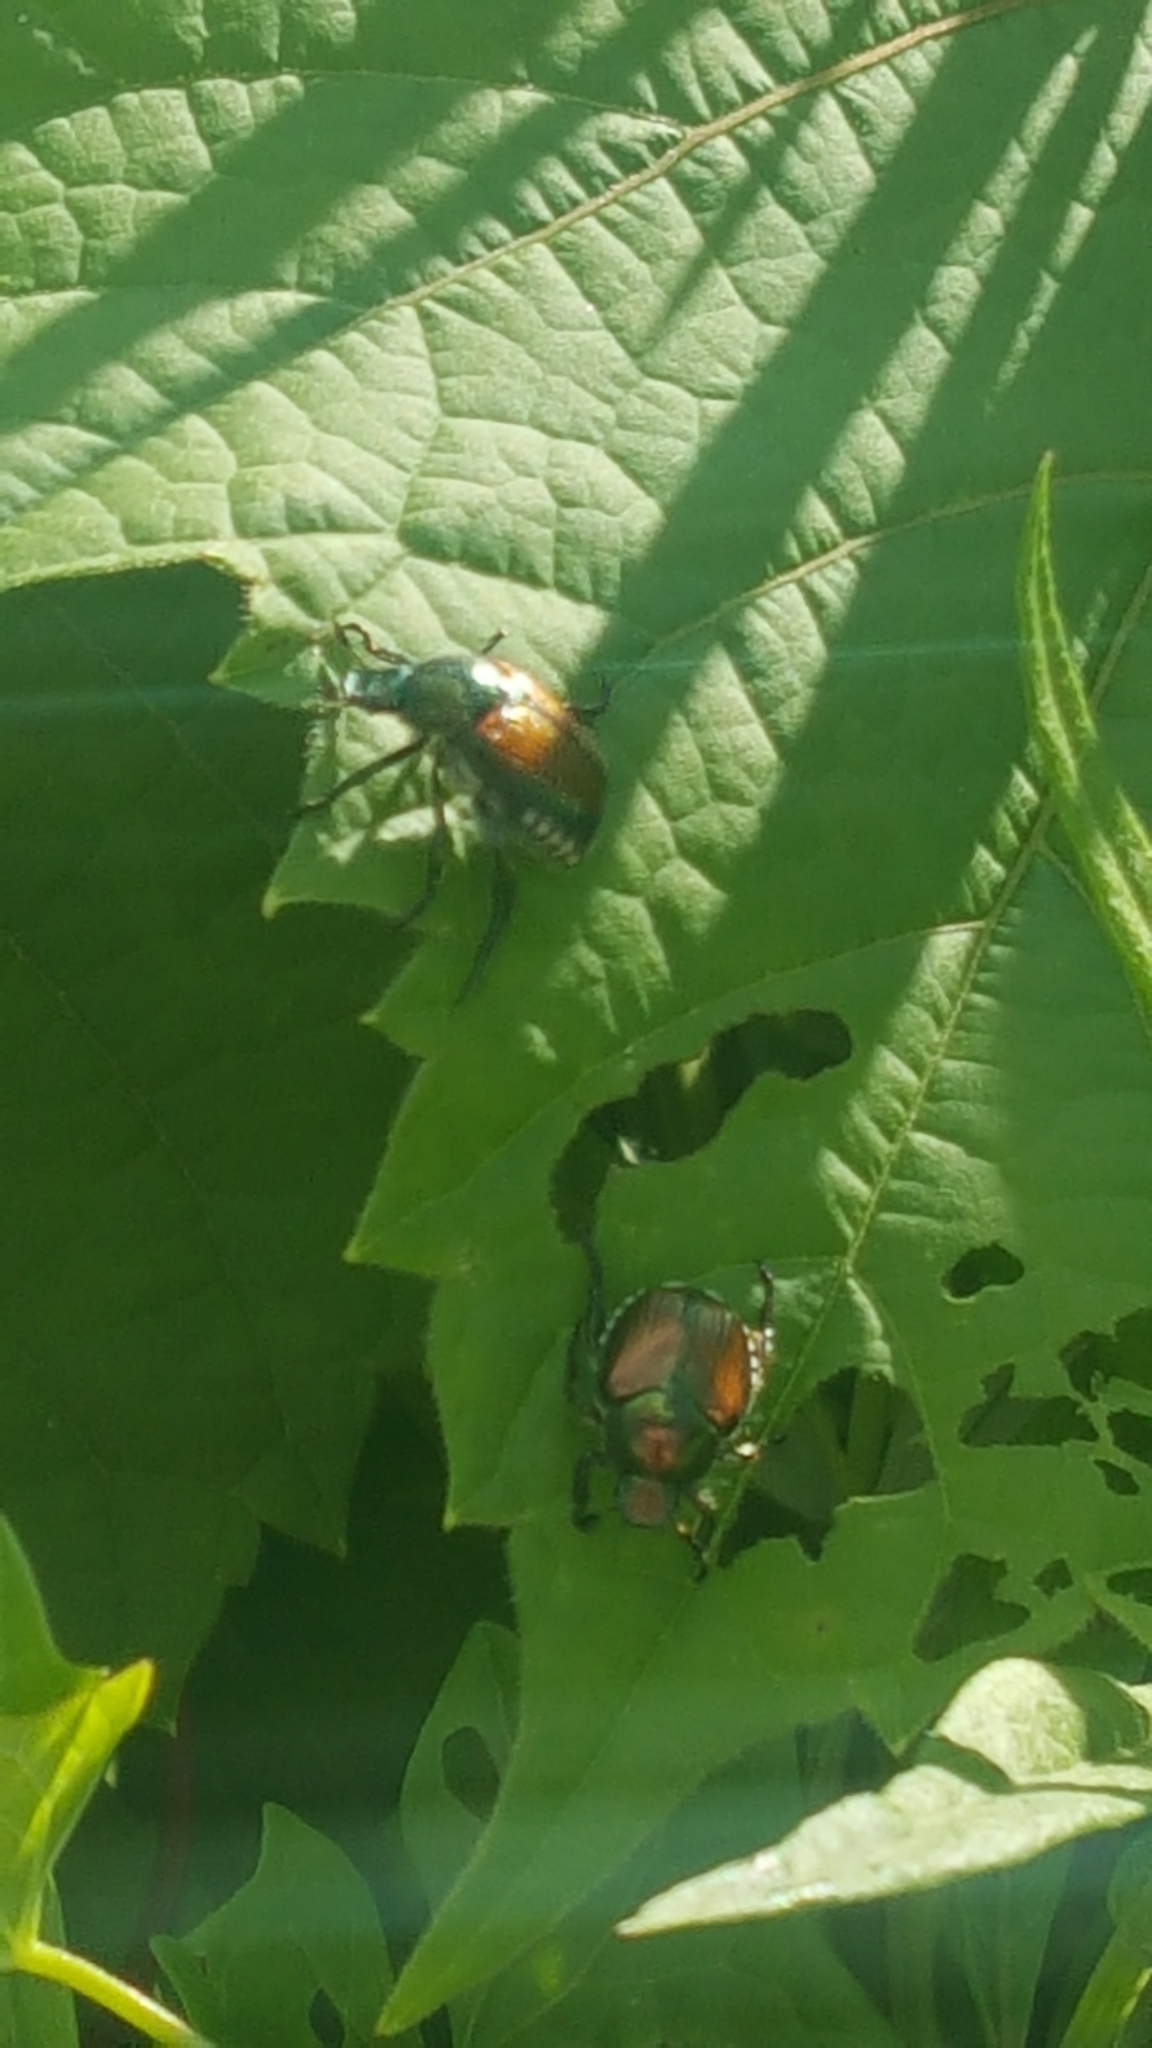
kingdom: Animalia
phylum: Arthropoda
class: Insecta
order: Coleoptera
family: Scarabaeidae
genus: Popillia
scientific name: Popillia japonica
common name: Japanese beetle
